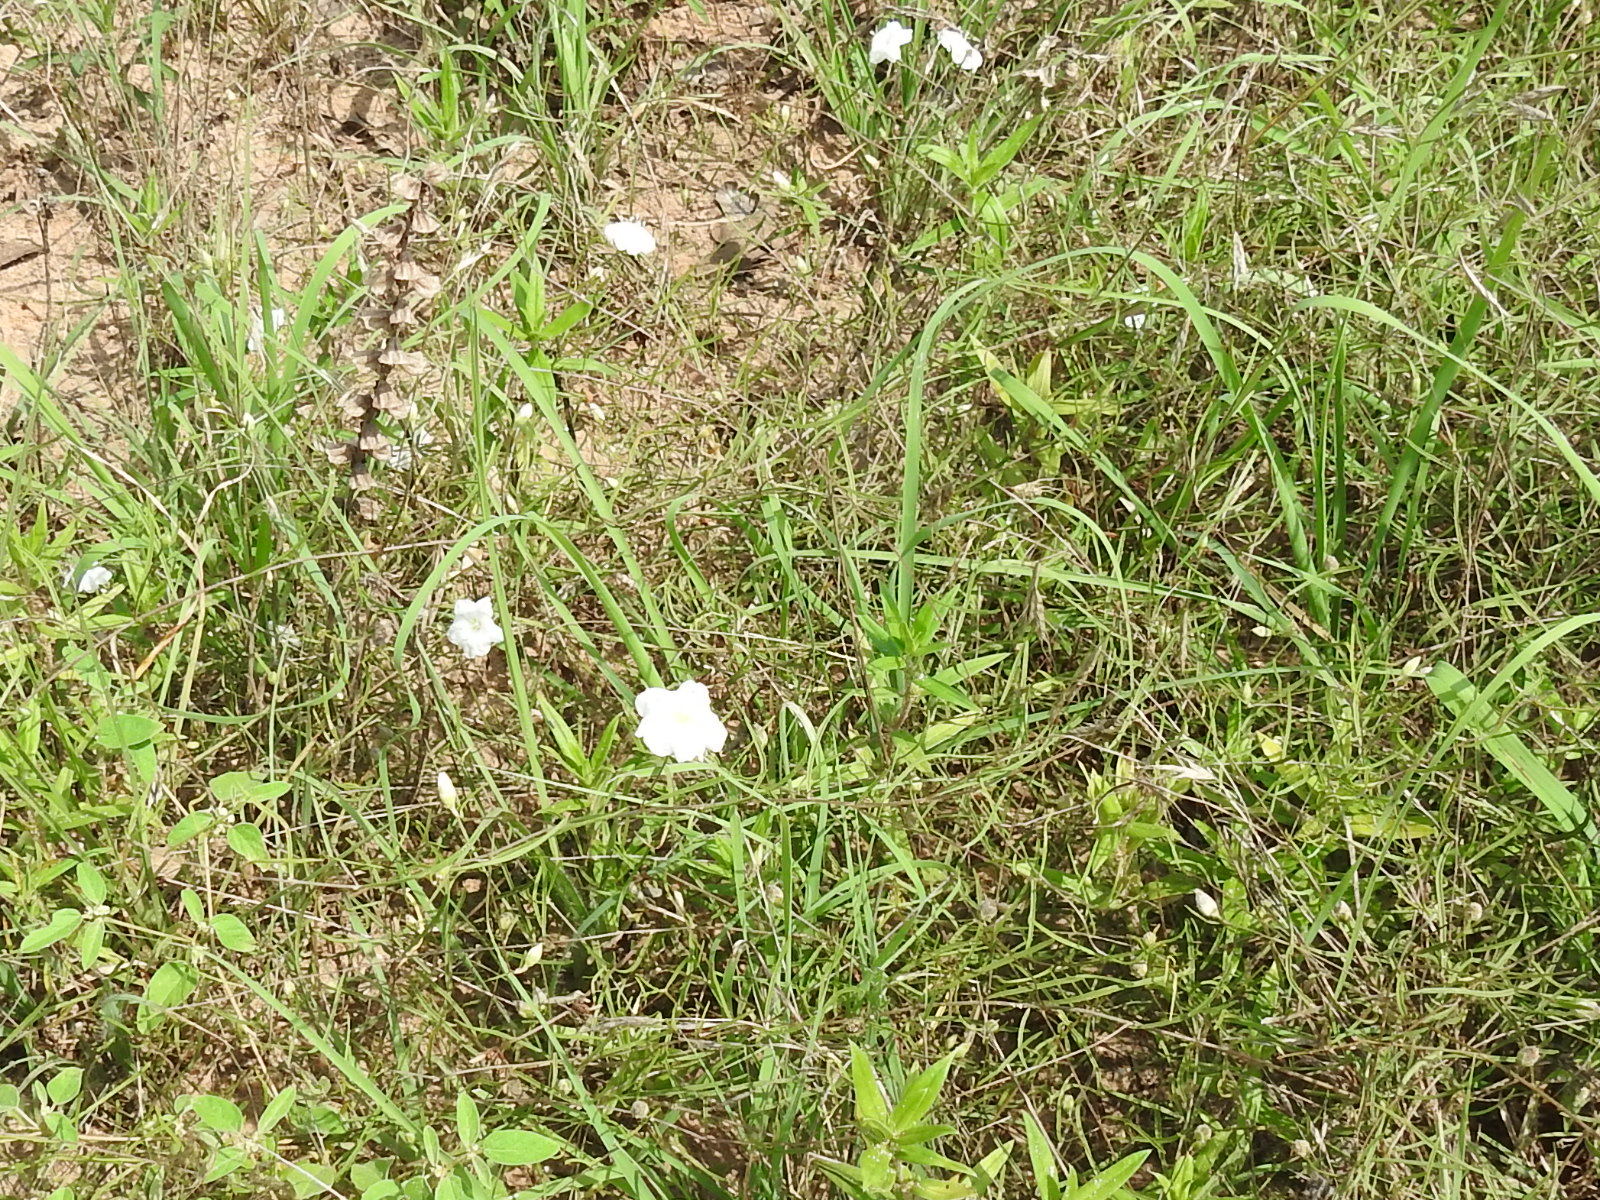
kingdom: Plantae
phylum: Tracheophyta
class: Magnoliopsida
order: Solanales
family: Convolvulaceae
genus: Stylisma
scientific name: Stylisma pickeringii
